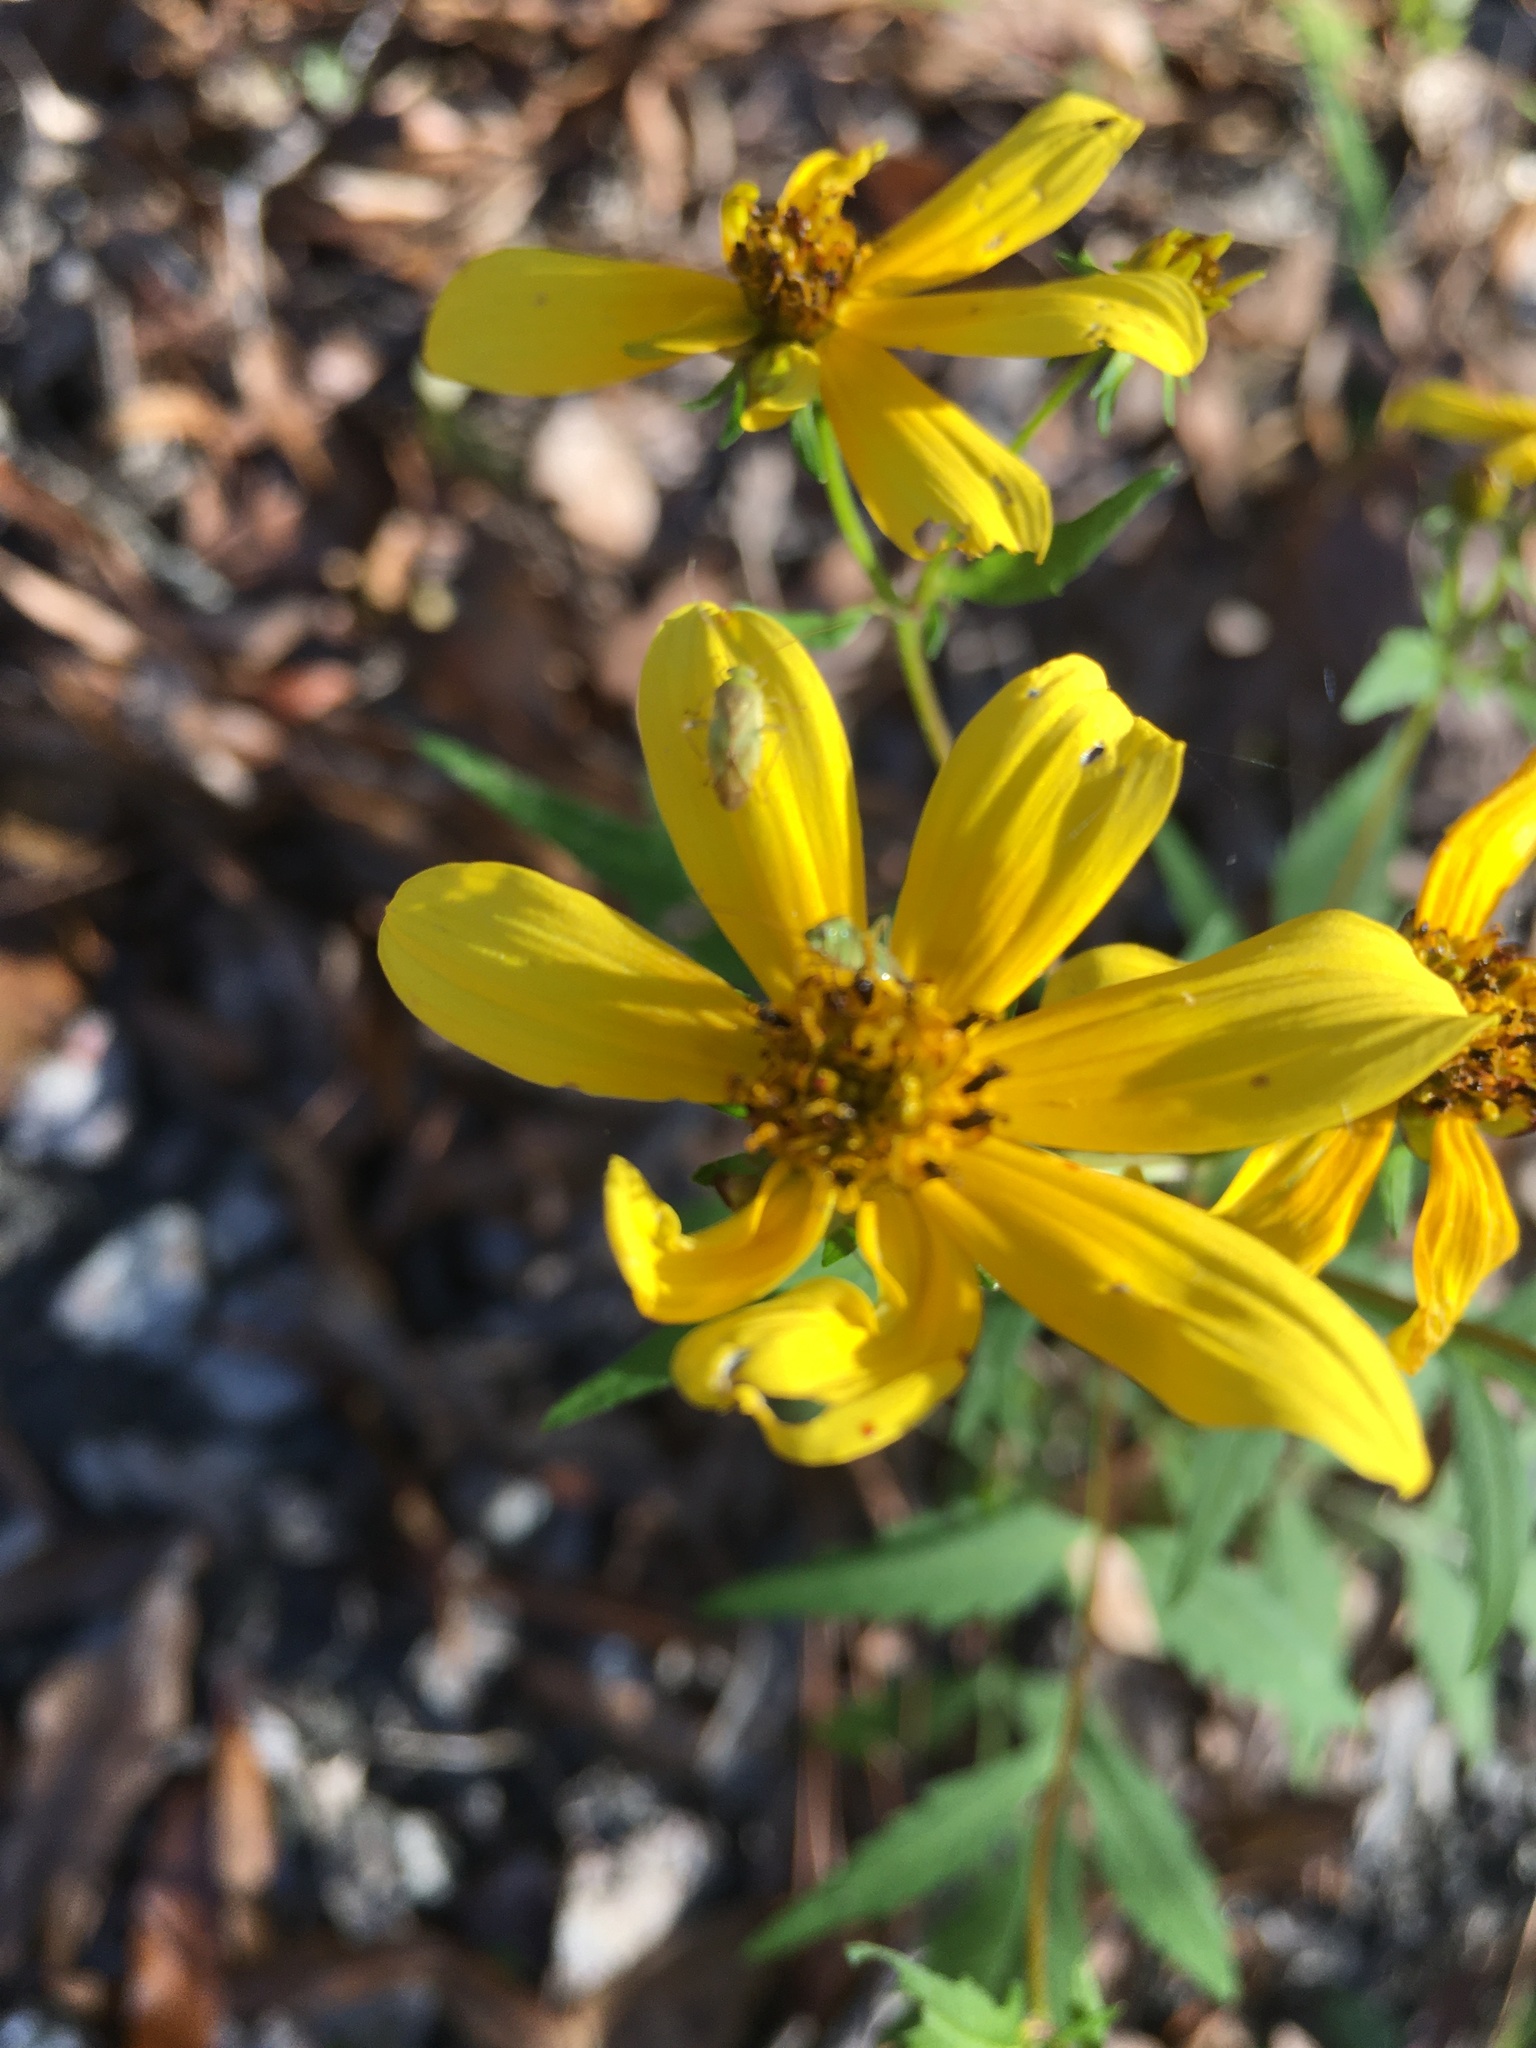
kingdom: Plantae
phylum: Tracheophyta
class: Magnoliopsida
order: Asterales
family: Asteraceae
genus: Bidens
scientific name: Bidens aristosa
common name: Western tickseed
